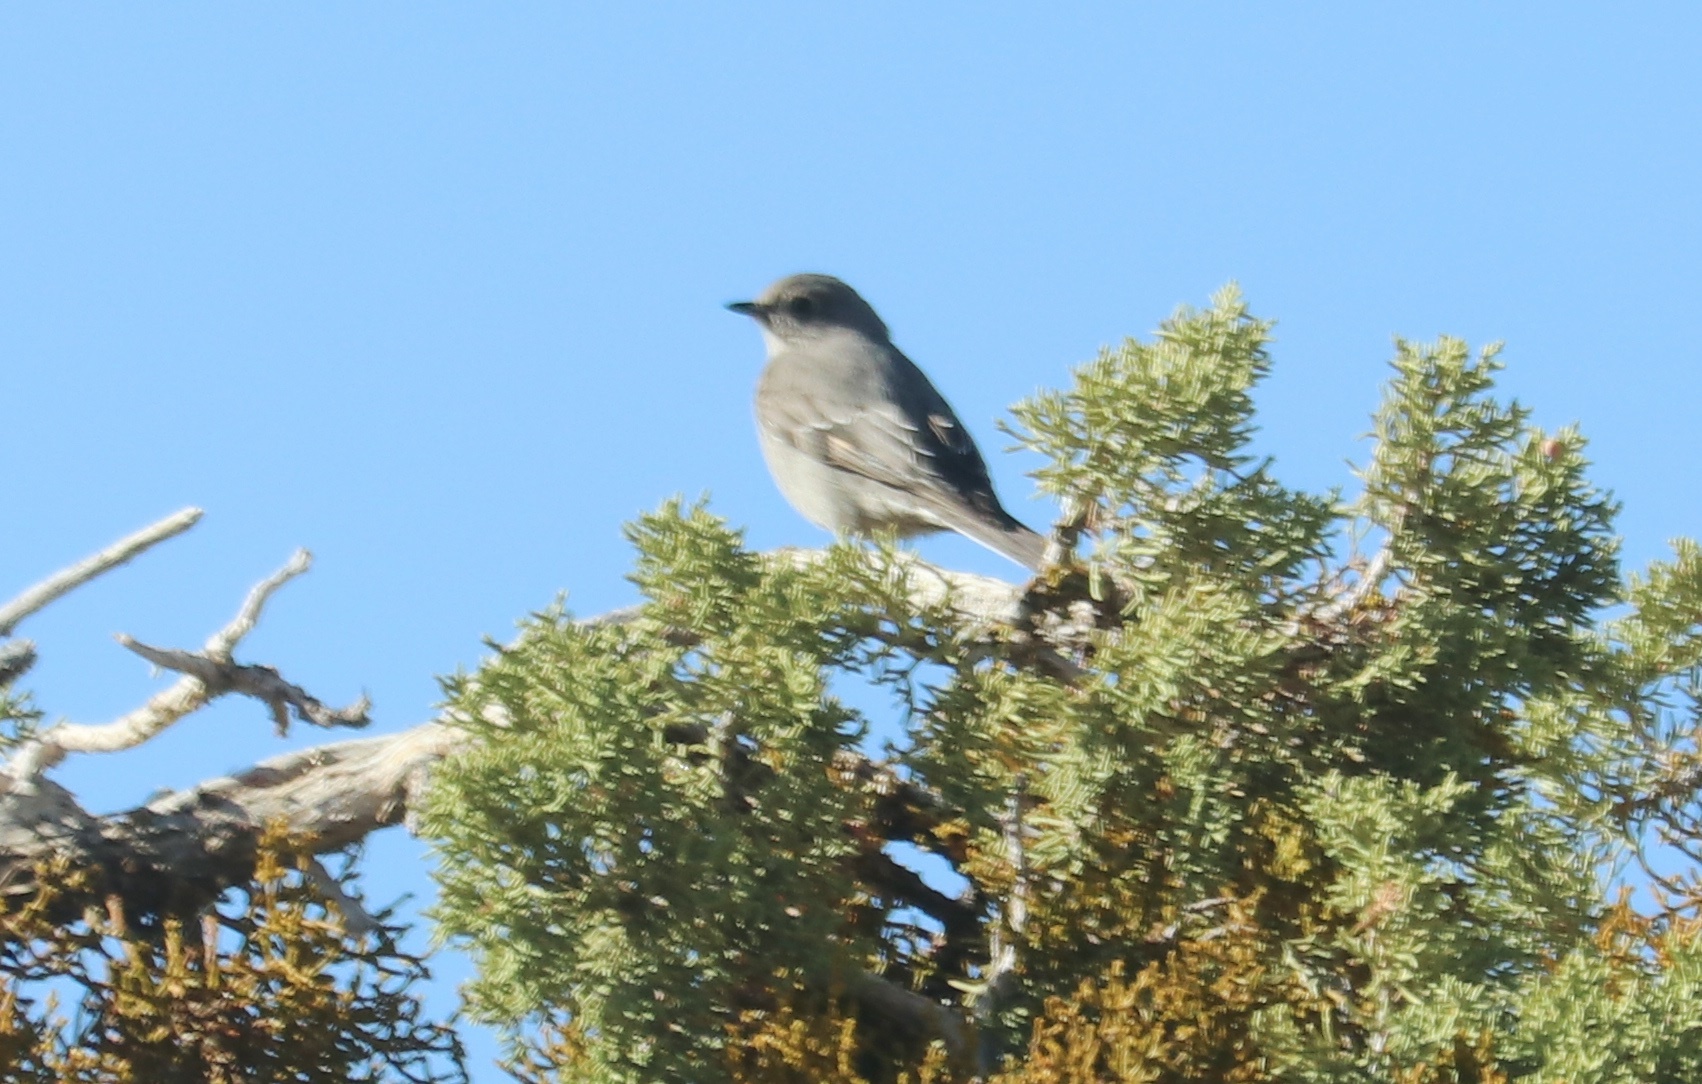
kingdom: Animalia
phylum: Chordata
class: Aves
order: Passeriformes
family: Turdidae
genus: Myadestes
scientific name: Myadestes townsendi
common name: Townsend's solitaire
